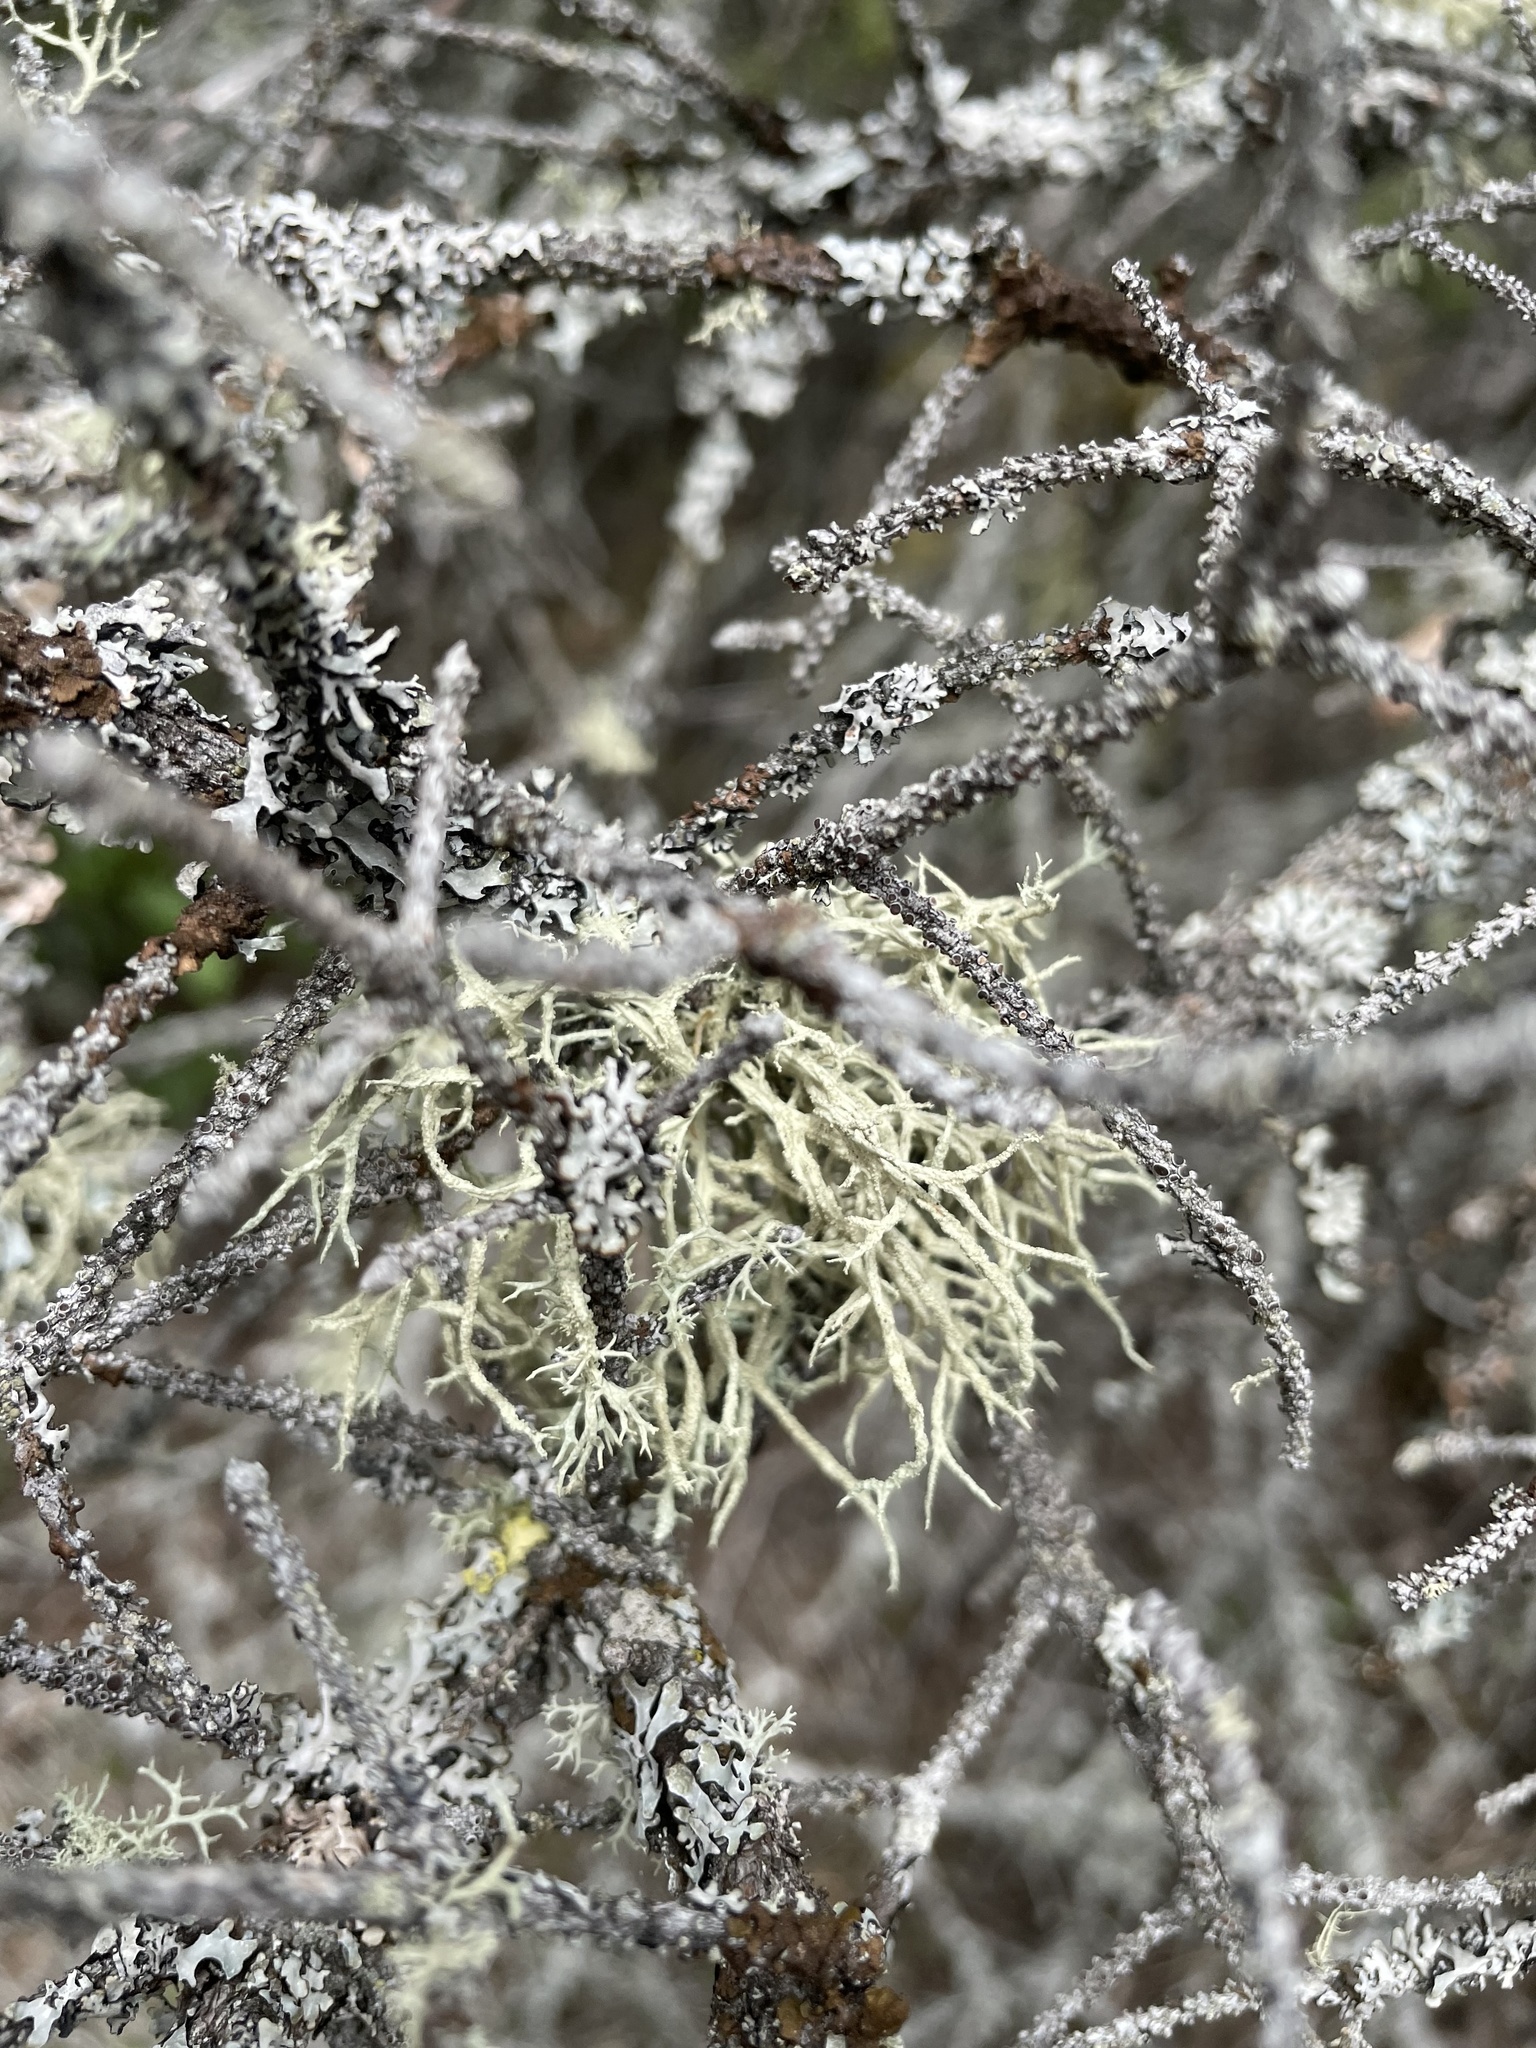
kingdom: Fungi
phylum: Ascomycota
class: Lecanoromycetes
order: Lecanorales
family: Parmeliaceae
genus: Evernia
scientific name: Evernia mesomorpha
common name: Boreal oak moss lichen
